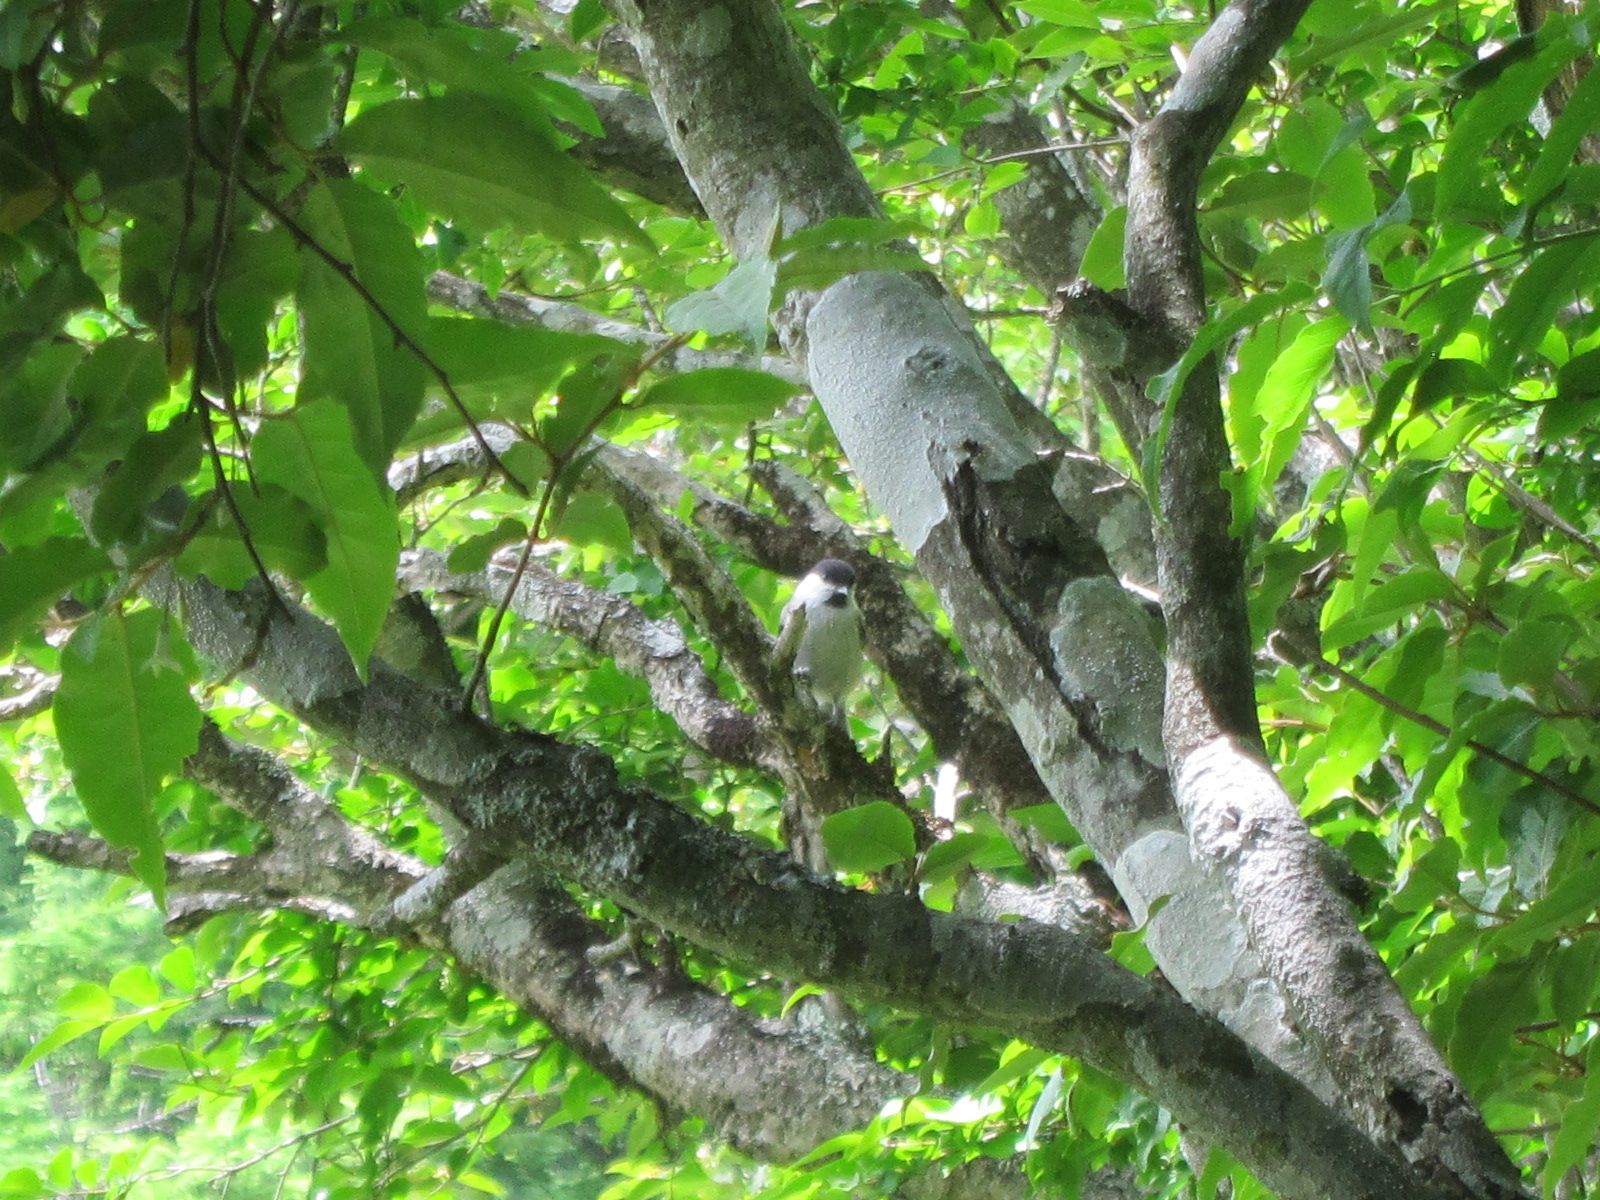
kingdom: Animalia
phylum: Chordata
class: Aves
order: Passeriformes
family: Paridae
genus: Poecile
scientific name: Poecile montanus
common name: Willow tit
